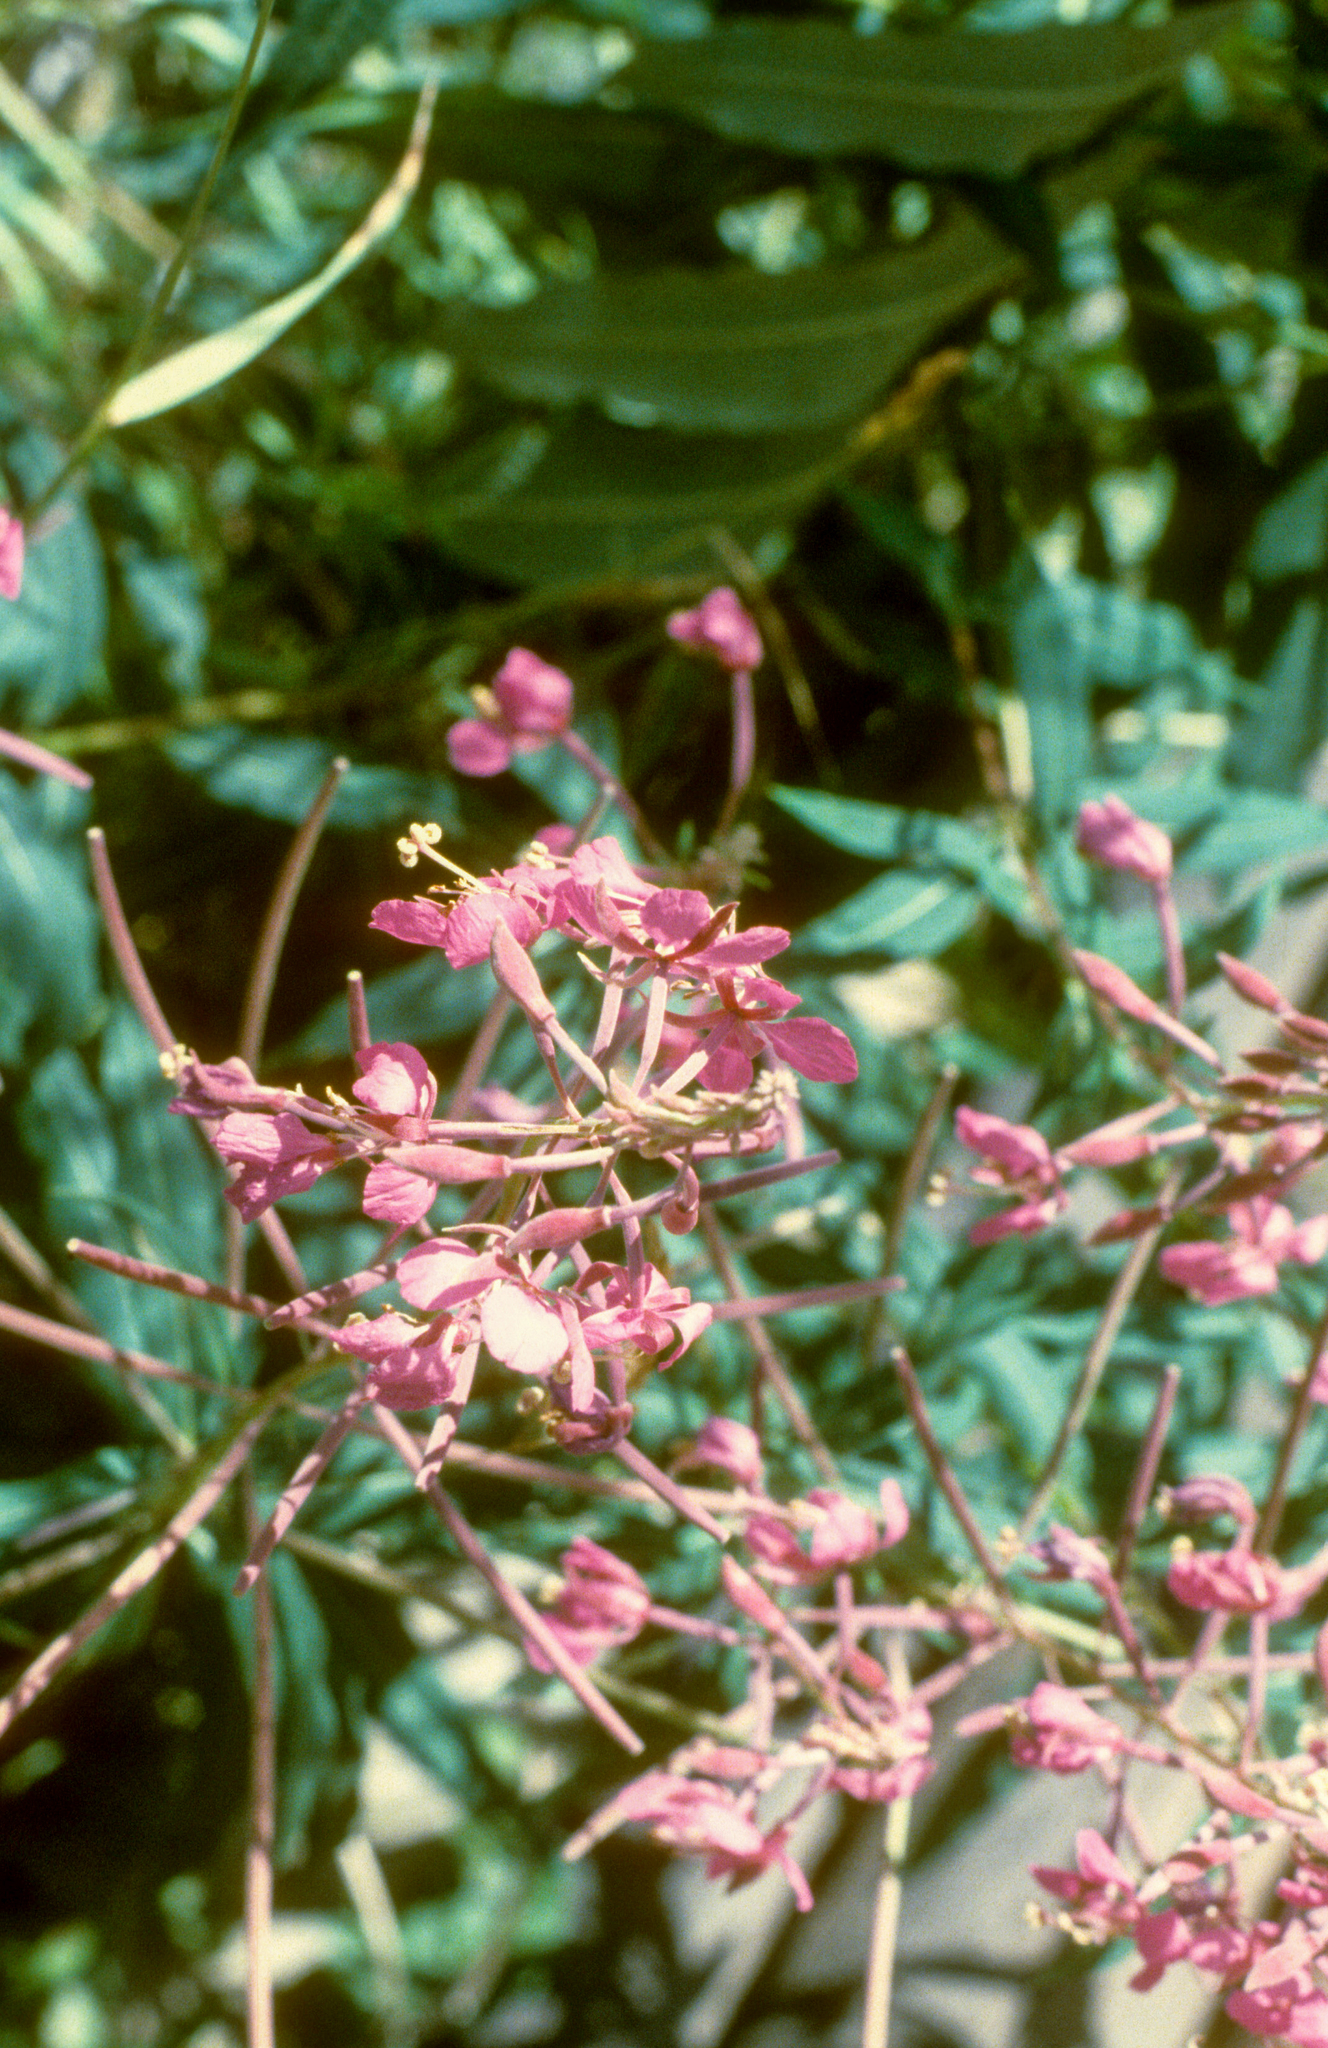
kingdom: Plantae
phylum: Tracheophyta
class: Magnoliopsida
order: Myrtales
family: Onagraceae
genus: Chamaenerion
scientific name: Chamaenerion angustifolium
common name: Fireweed
